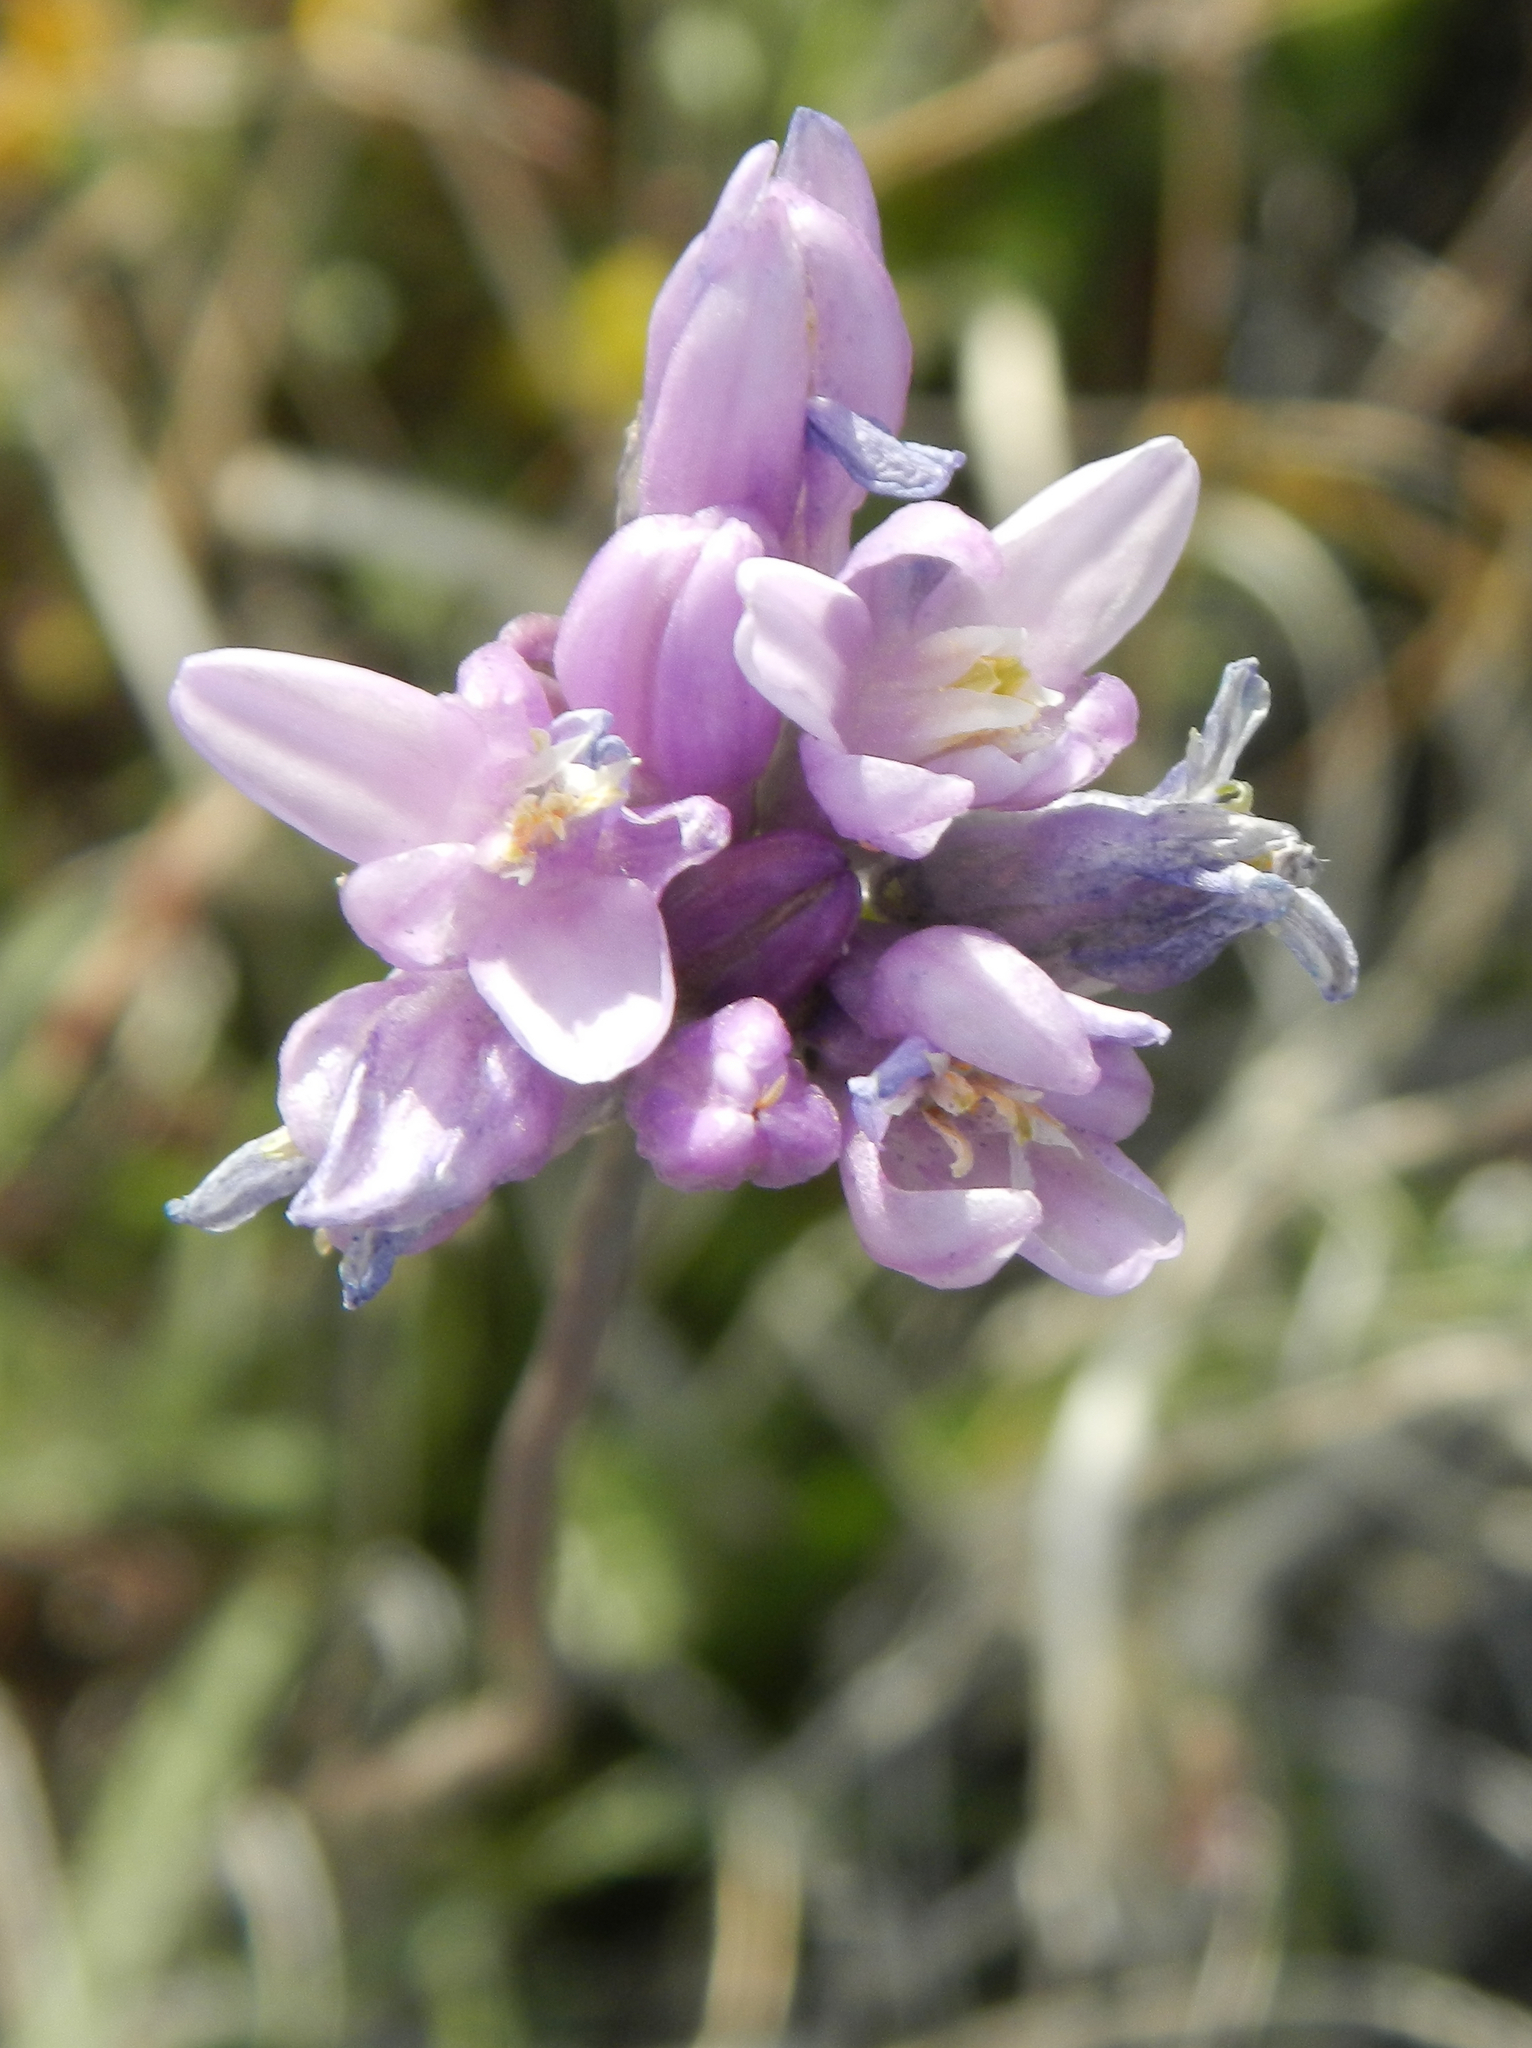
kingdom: Plantae
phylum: Tracheophyta
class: Liliopsida
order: Asparagales
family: Asparagaceae
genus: Dipterostemon
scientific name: Dipterostemon capitatus
